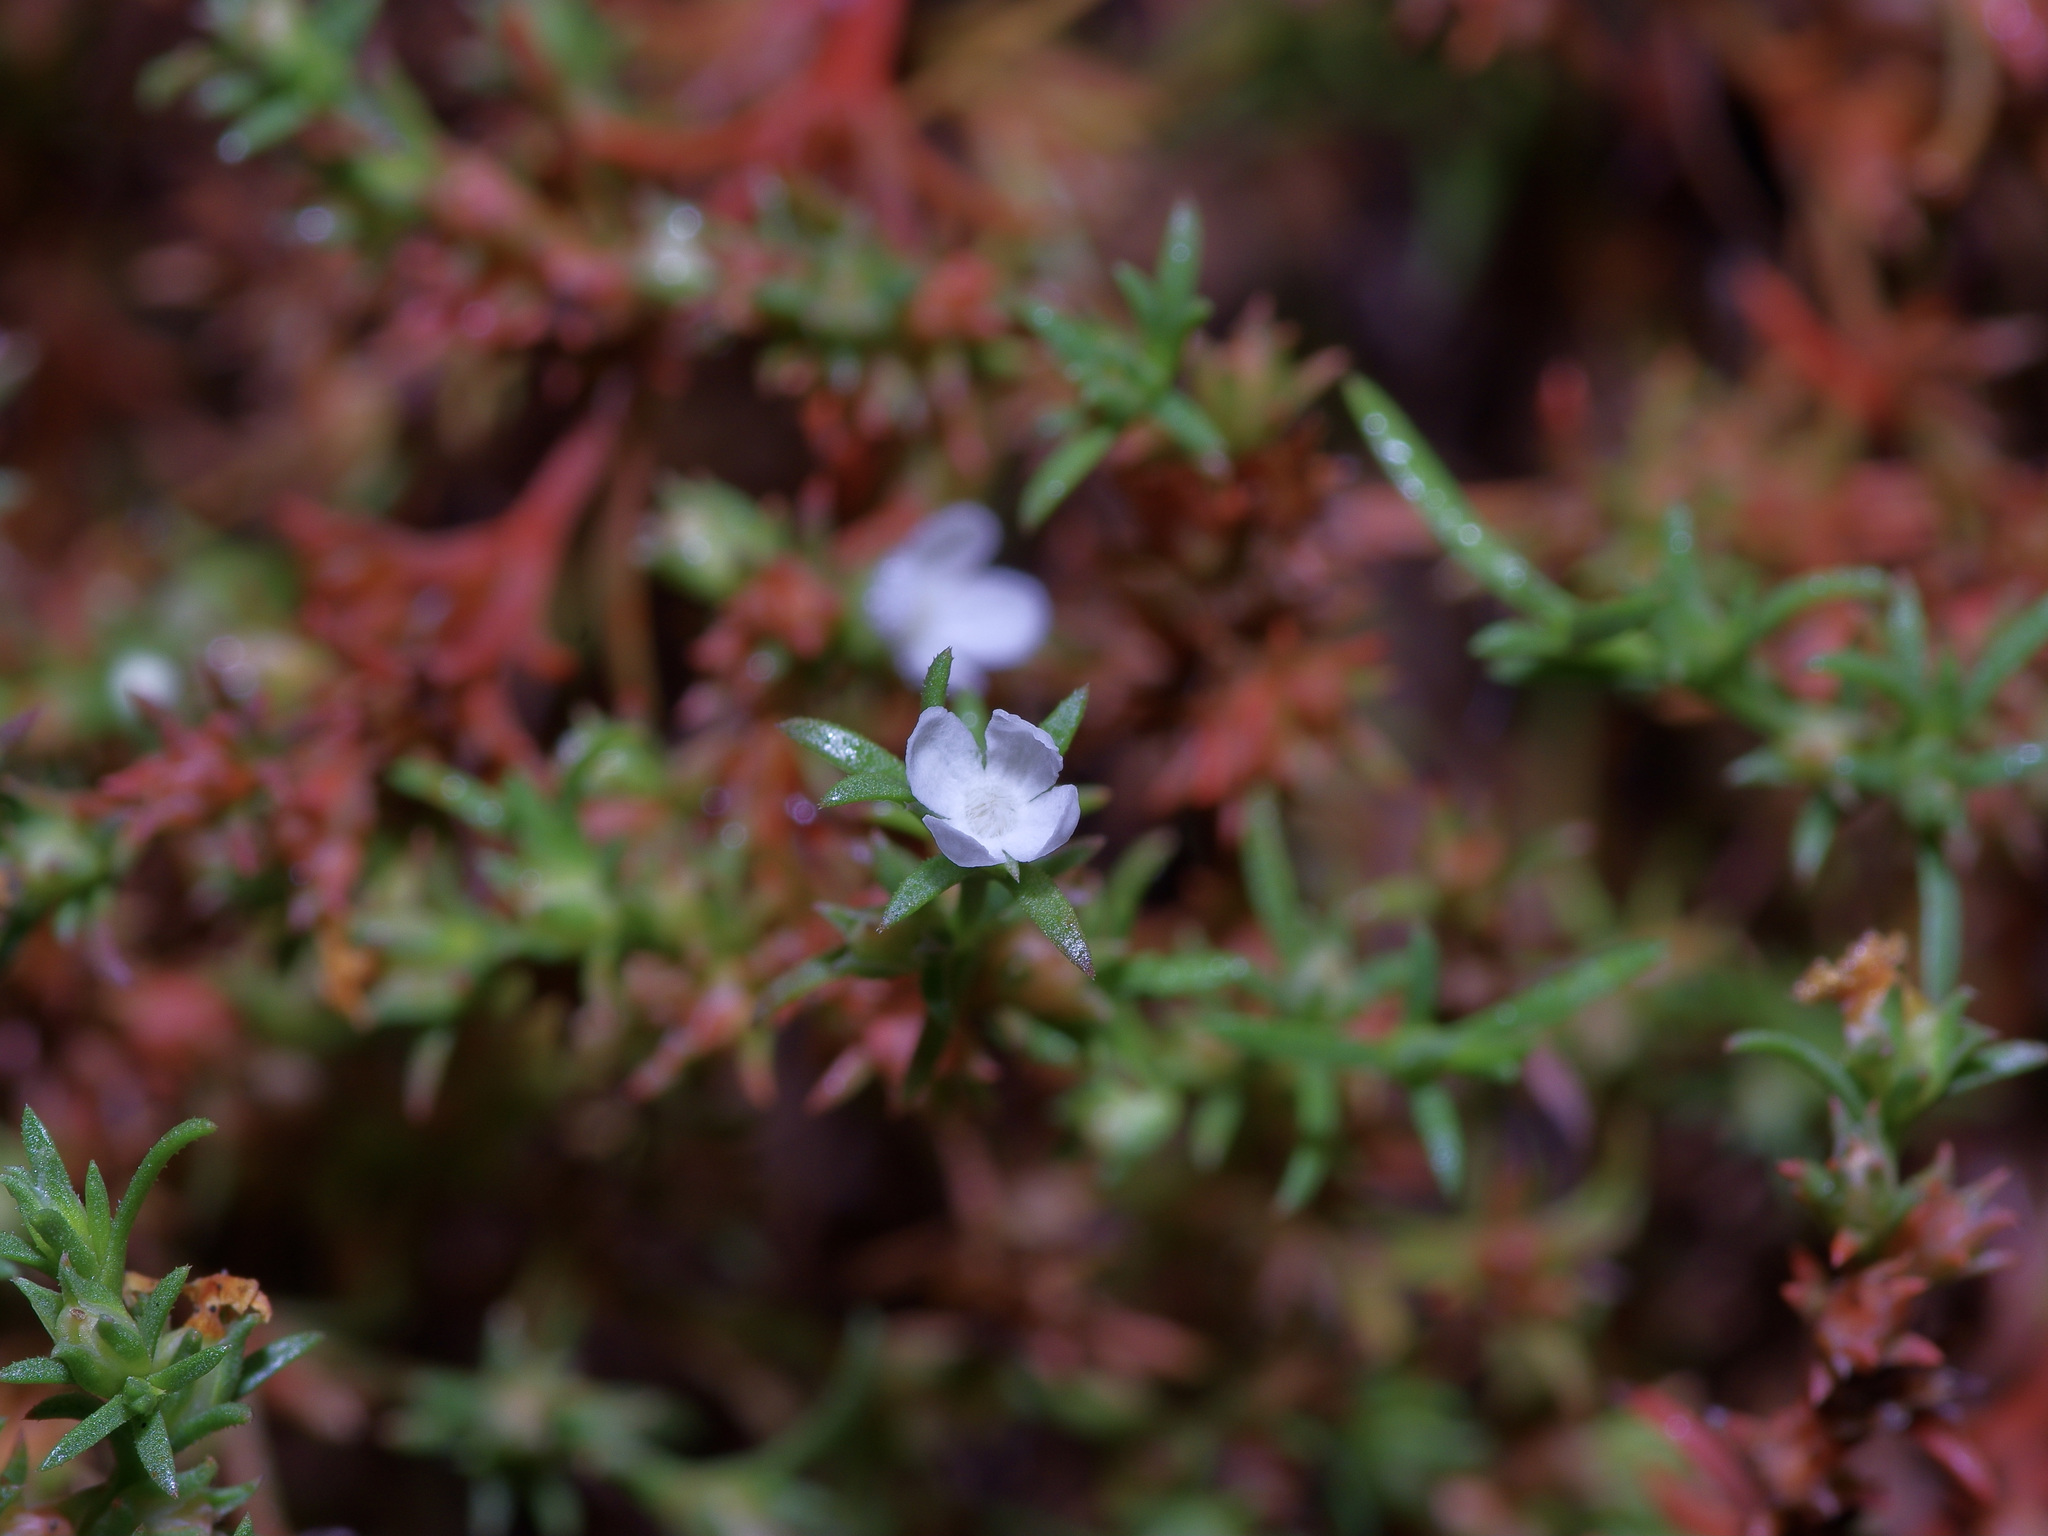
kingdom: Plantae
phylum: Tracheophyta
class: Magnoliopsida
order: Lamiales
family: Tetrachondraceae
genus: Polypremum
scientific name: Polypremum procumbens
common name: Juniper-leaf
